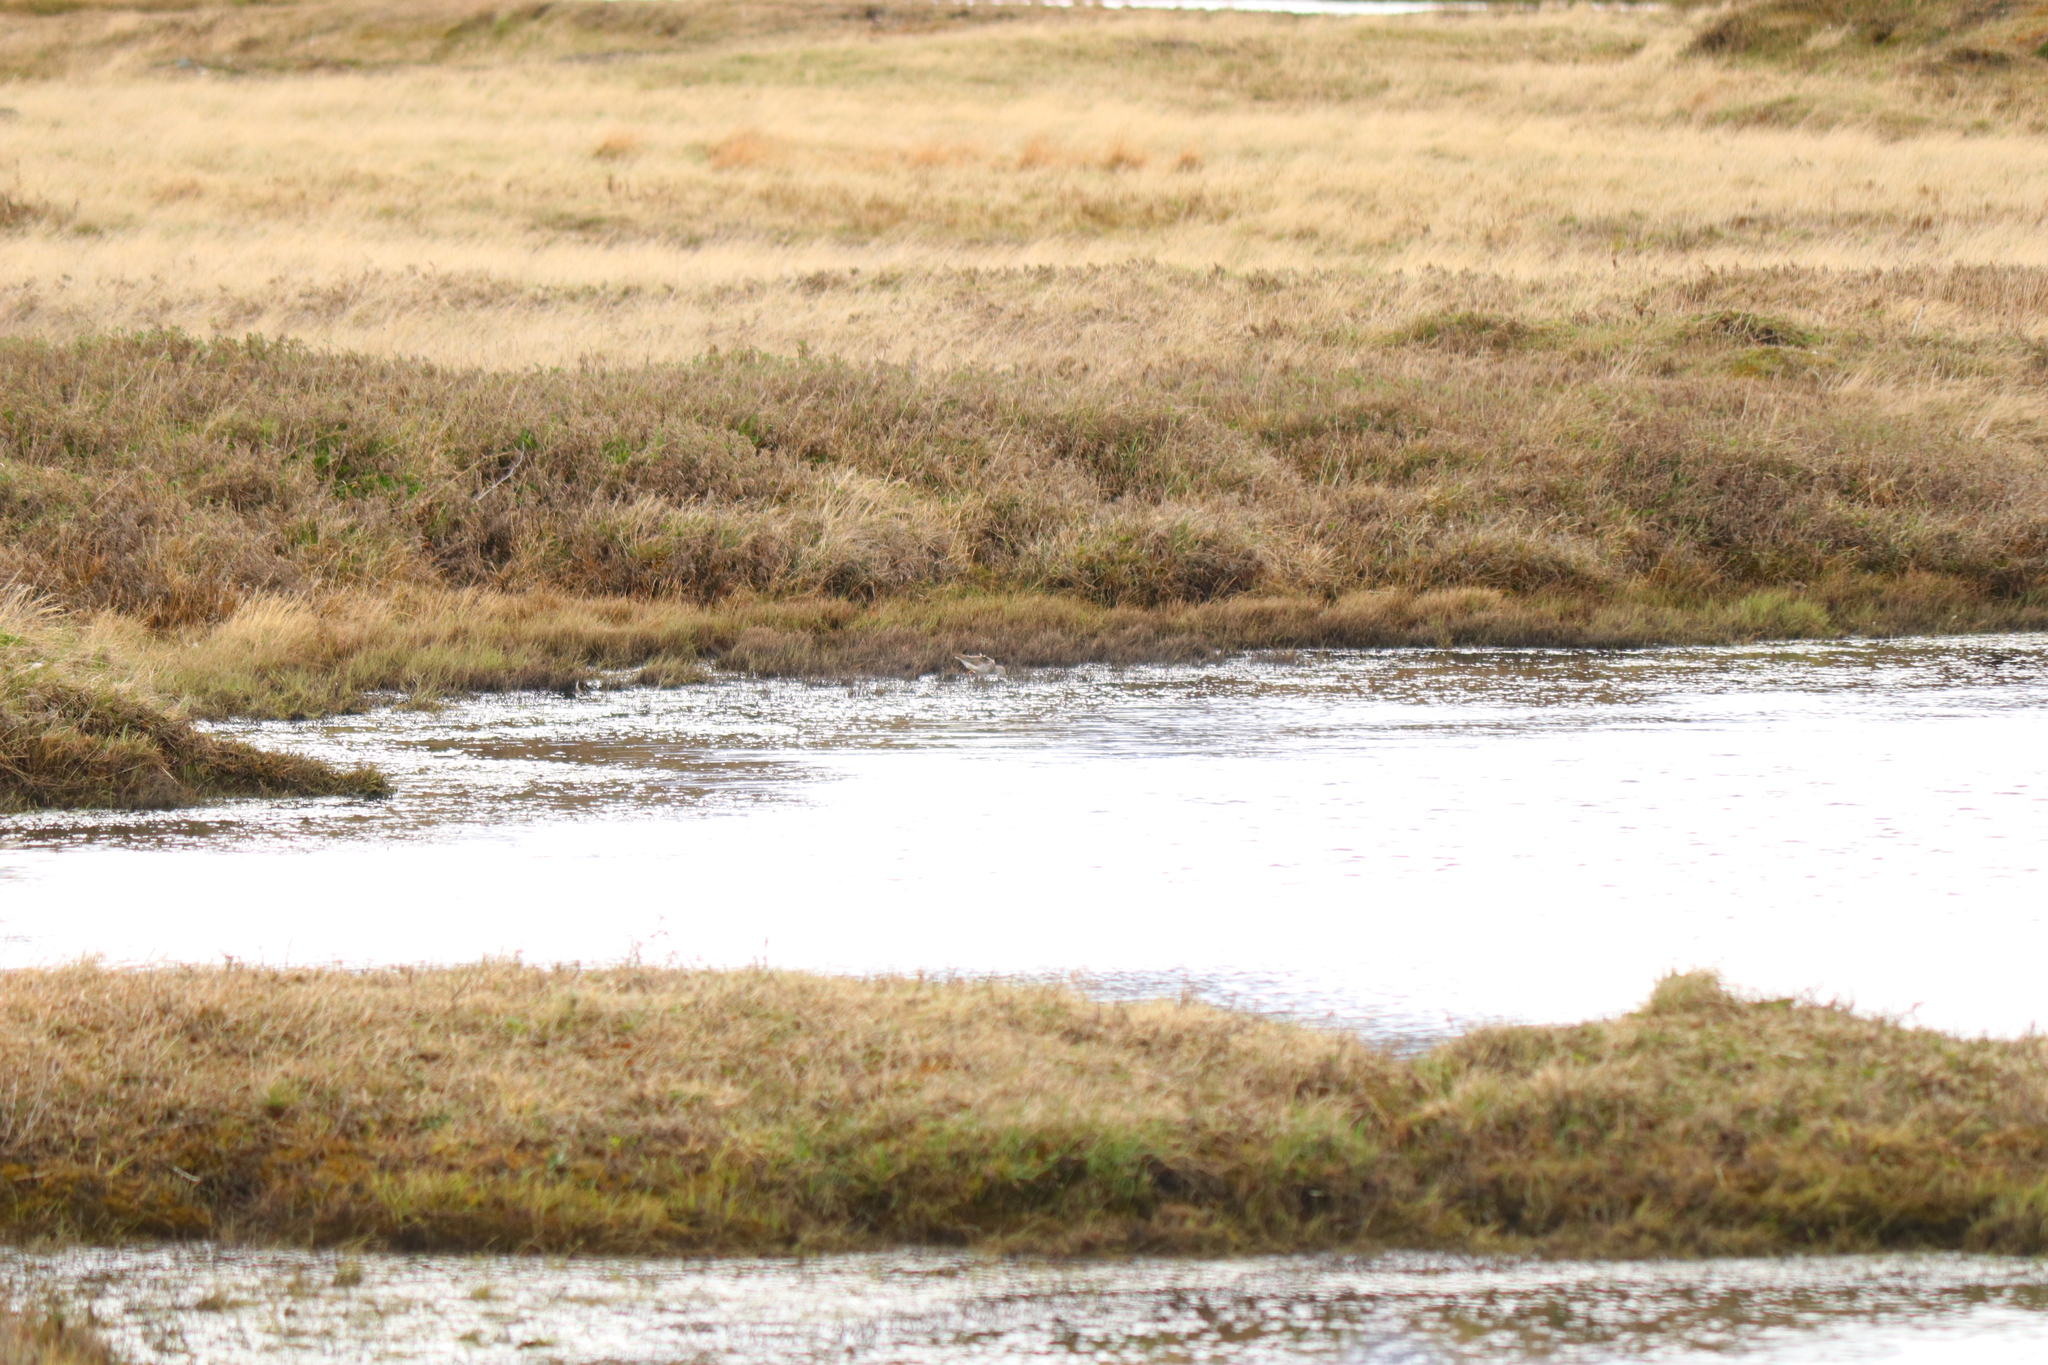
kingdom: Animalia
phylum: Chordata
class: Aves
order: Charadriiformes
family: Scolopacidae
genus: Tringa
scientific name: Tringa flavipes
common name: Lesser yellowlegs
